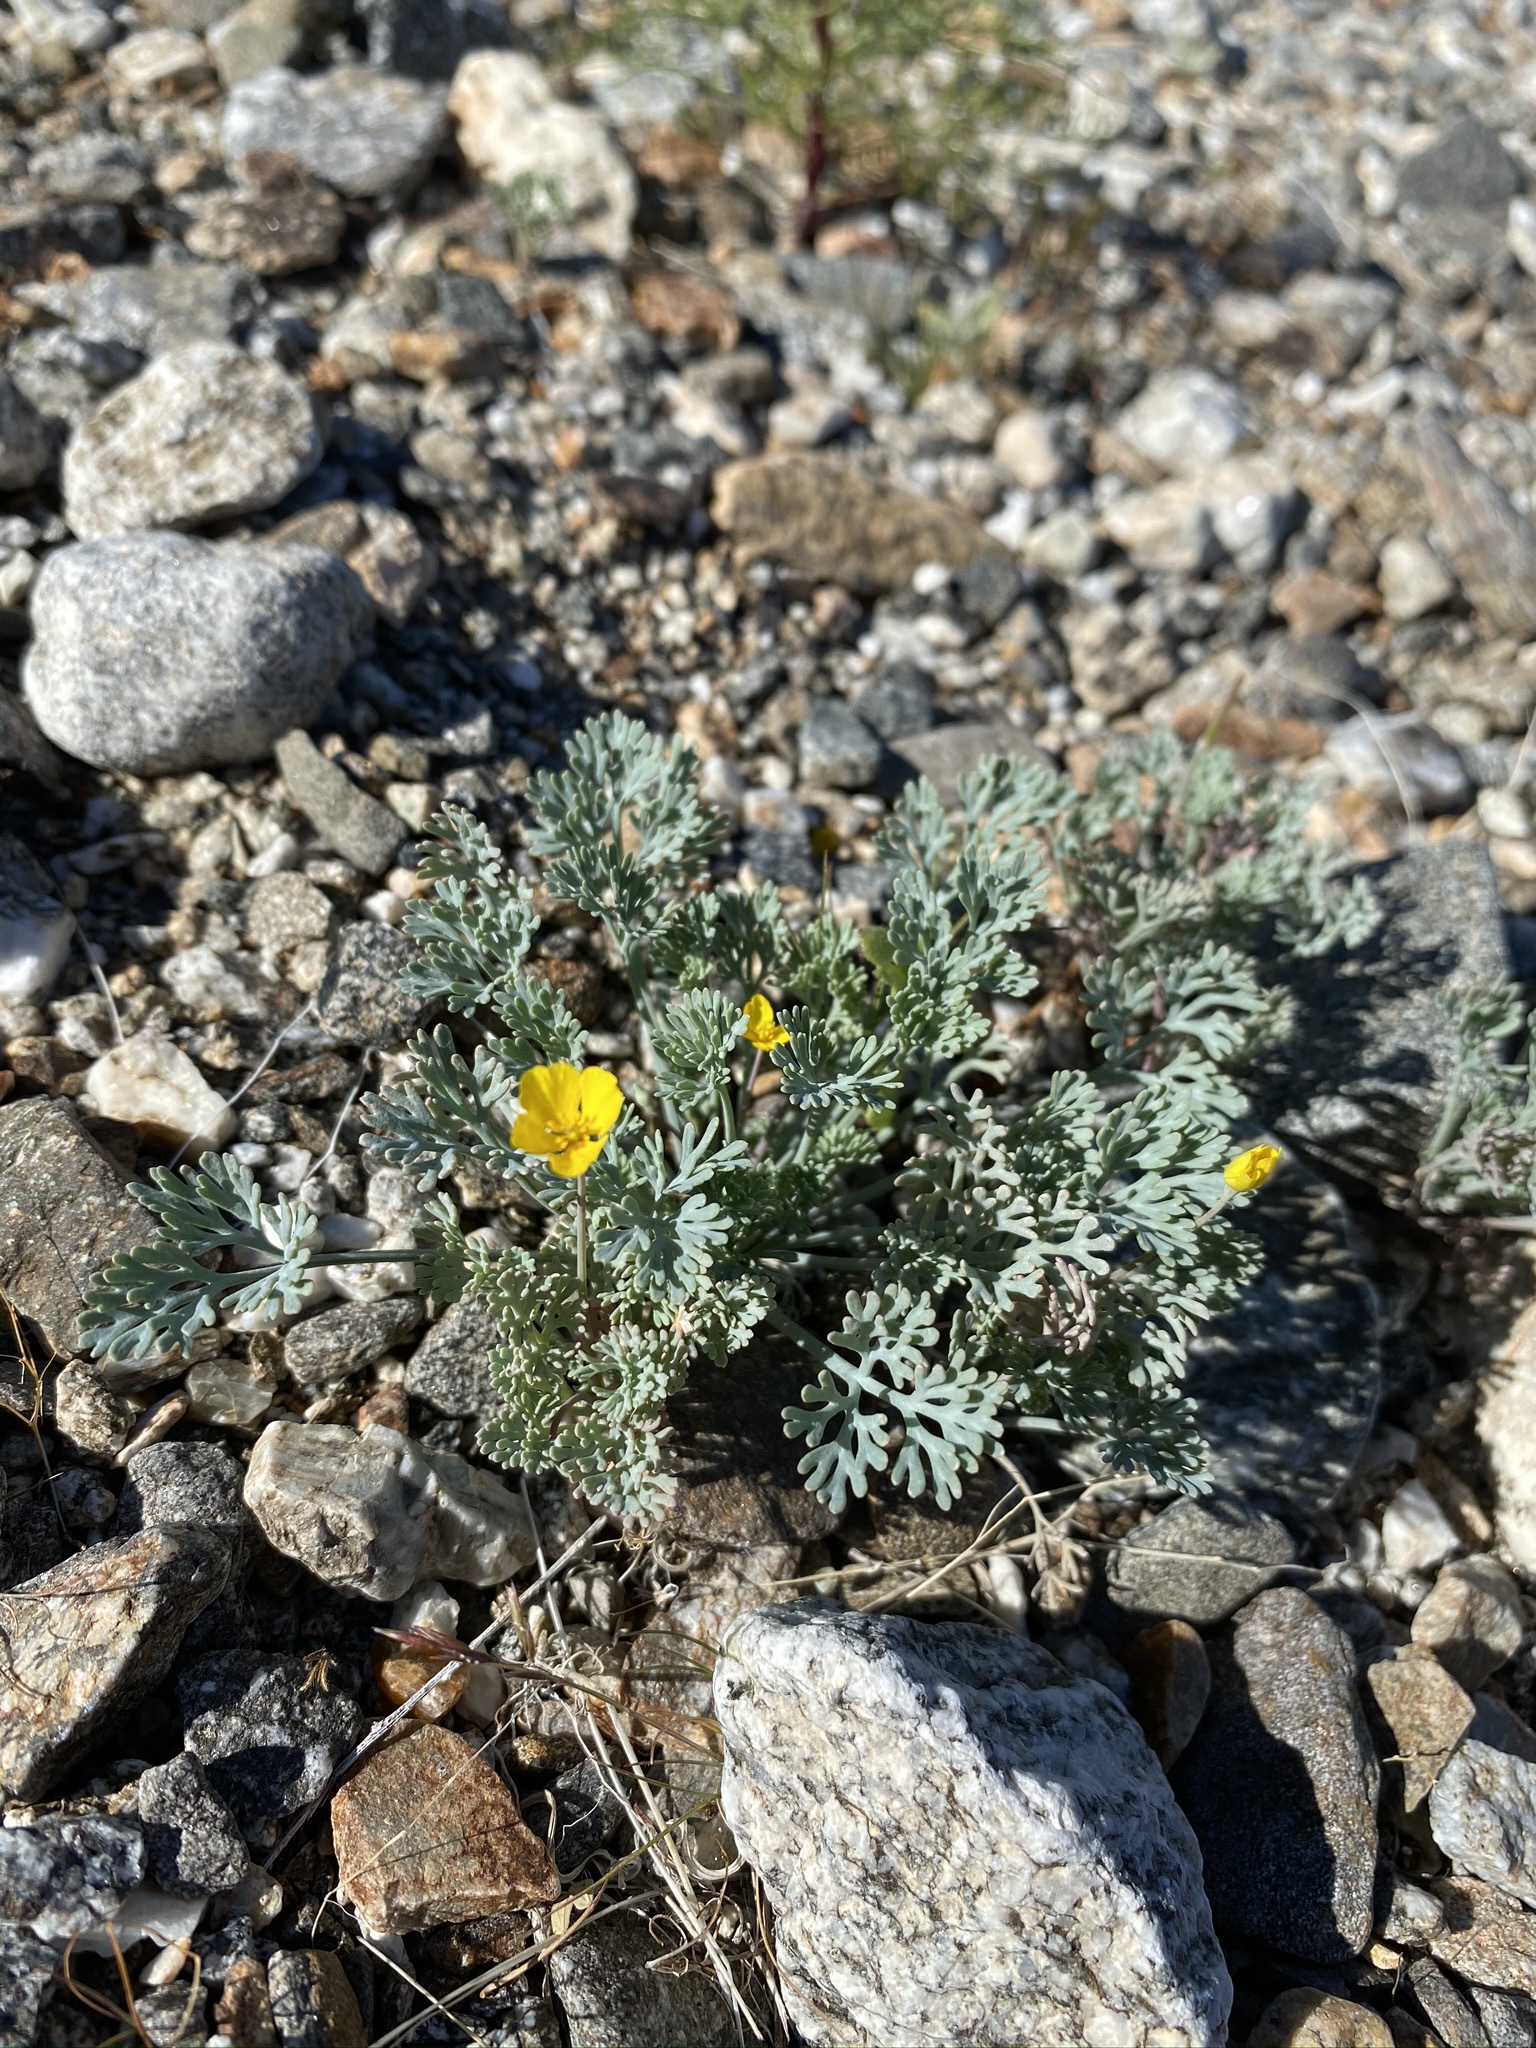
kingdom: Plantae
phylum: Tracheophyta
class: Magnoliopsida
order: Ranunculales
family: Papaveraceae
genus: Eschscholzia
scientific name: Eschscholzia minutiflora
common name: Small-flower california-poppy
